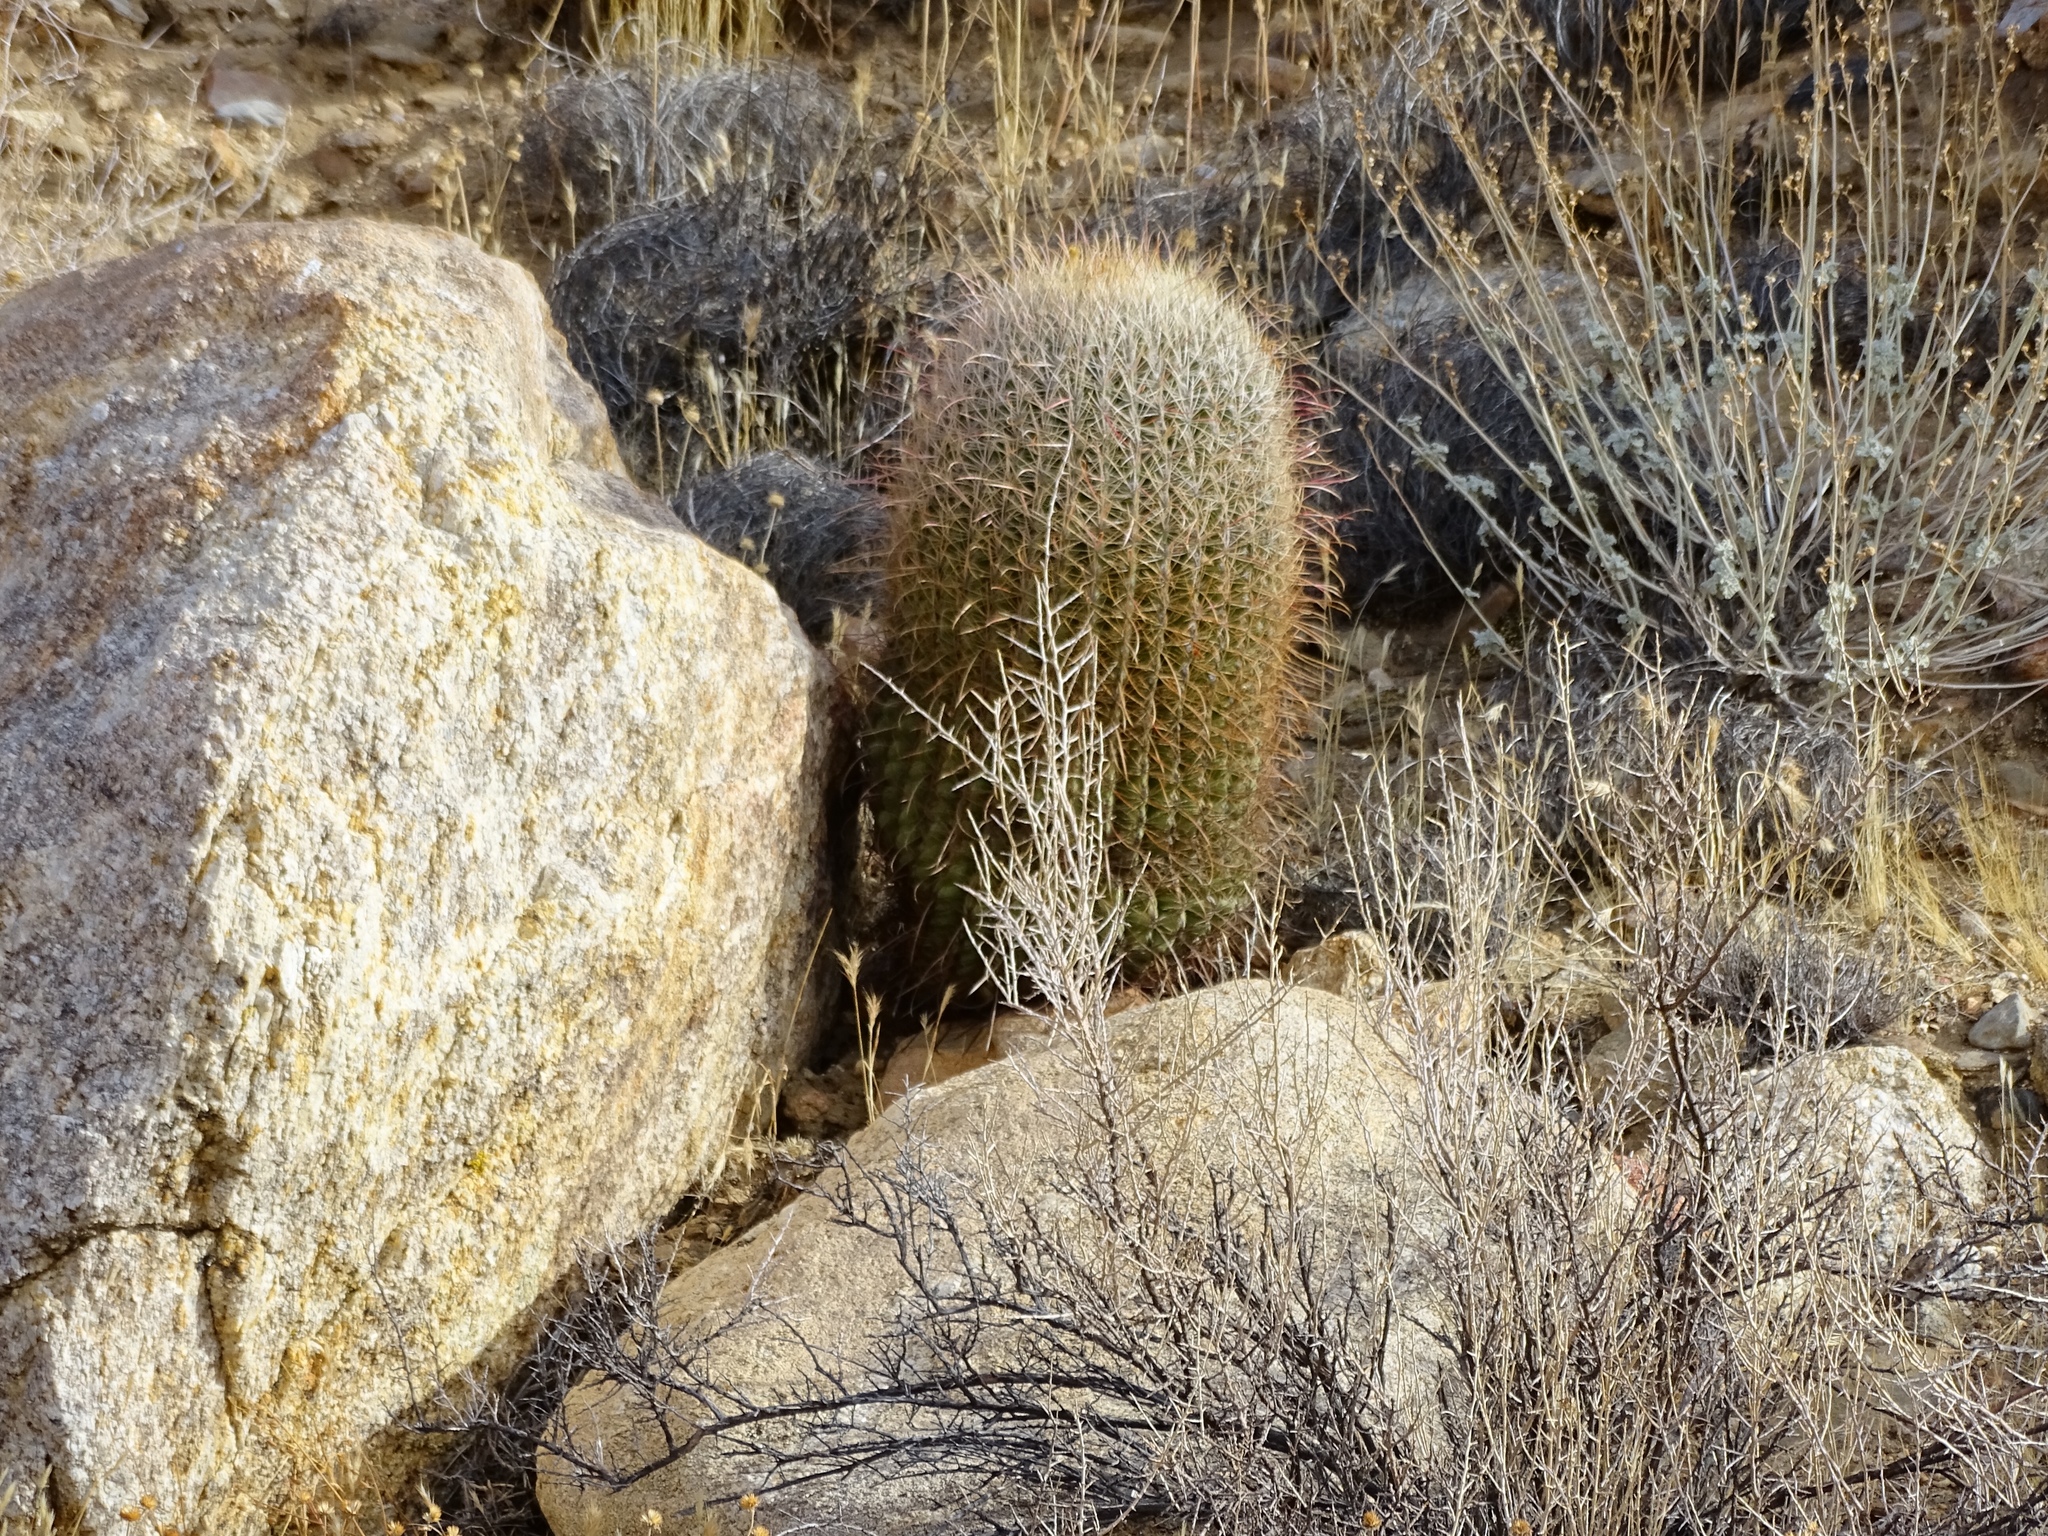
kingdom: Plantae
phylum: Tracheophyta
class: Magnoliopsida
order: Caryophyllales
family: Cactaceae
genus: Ferocactus
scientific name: Ferocactus cylindraceus
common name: California barrel cactus
